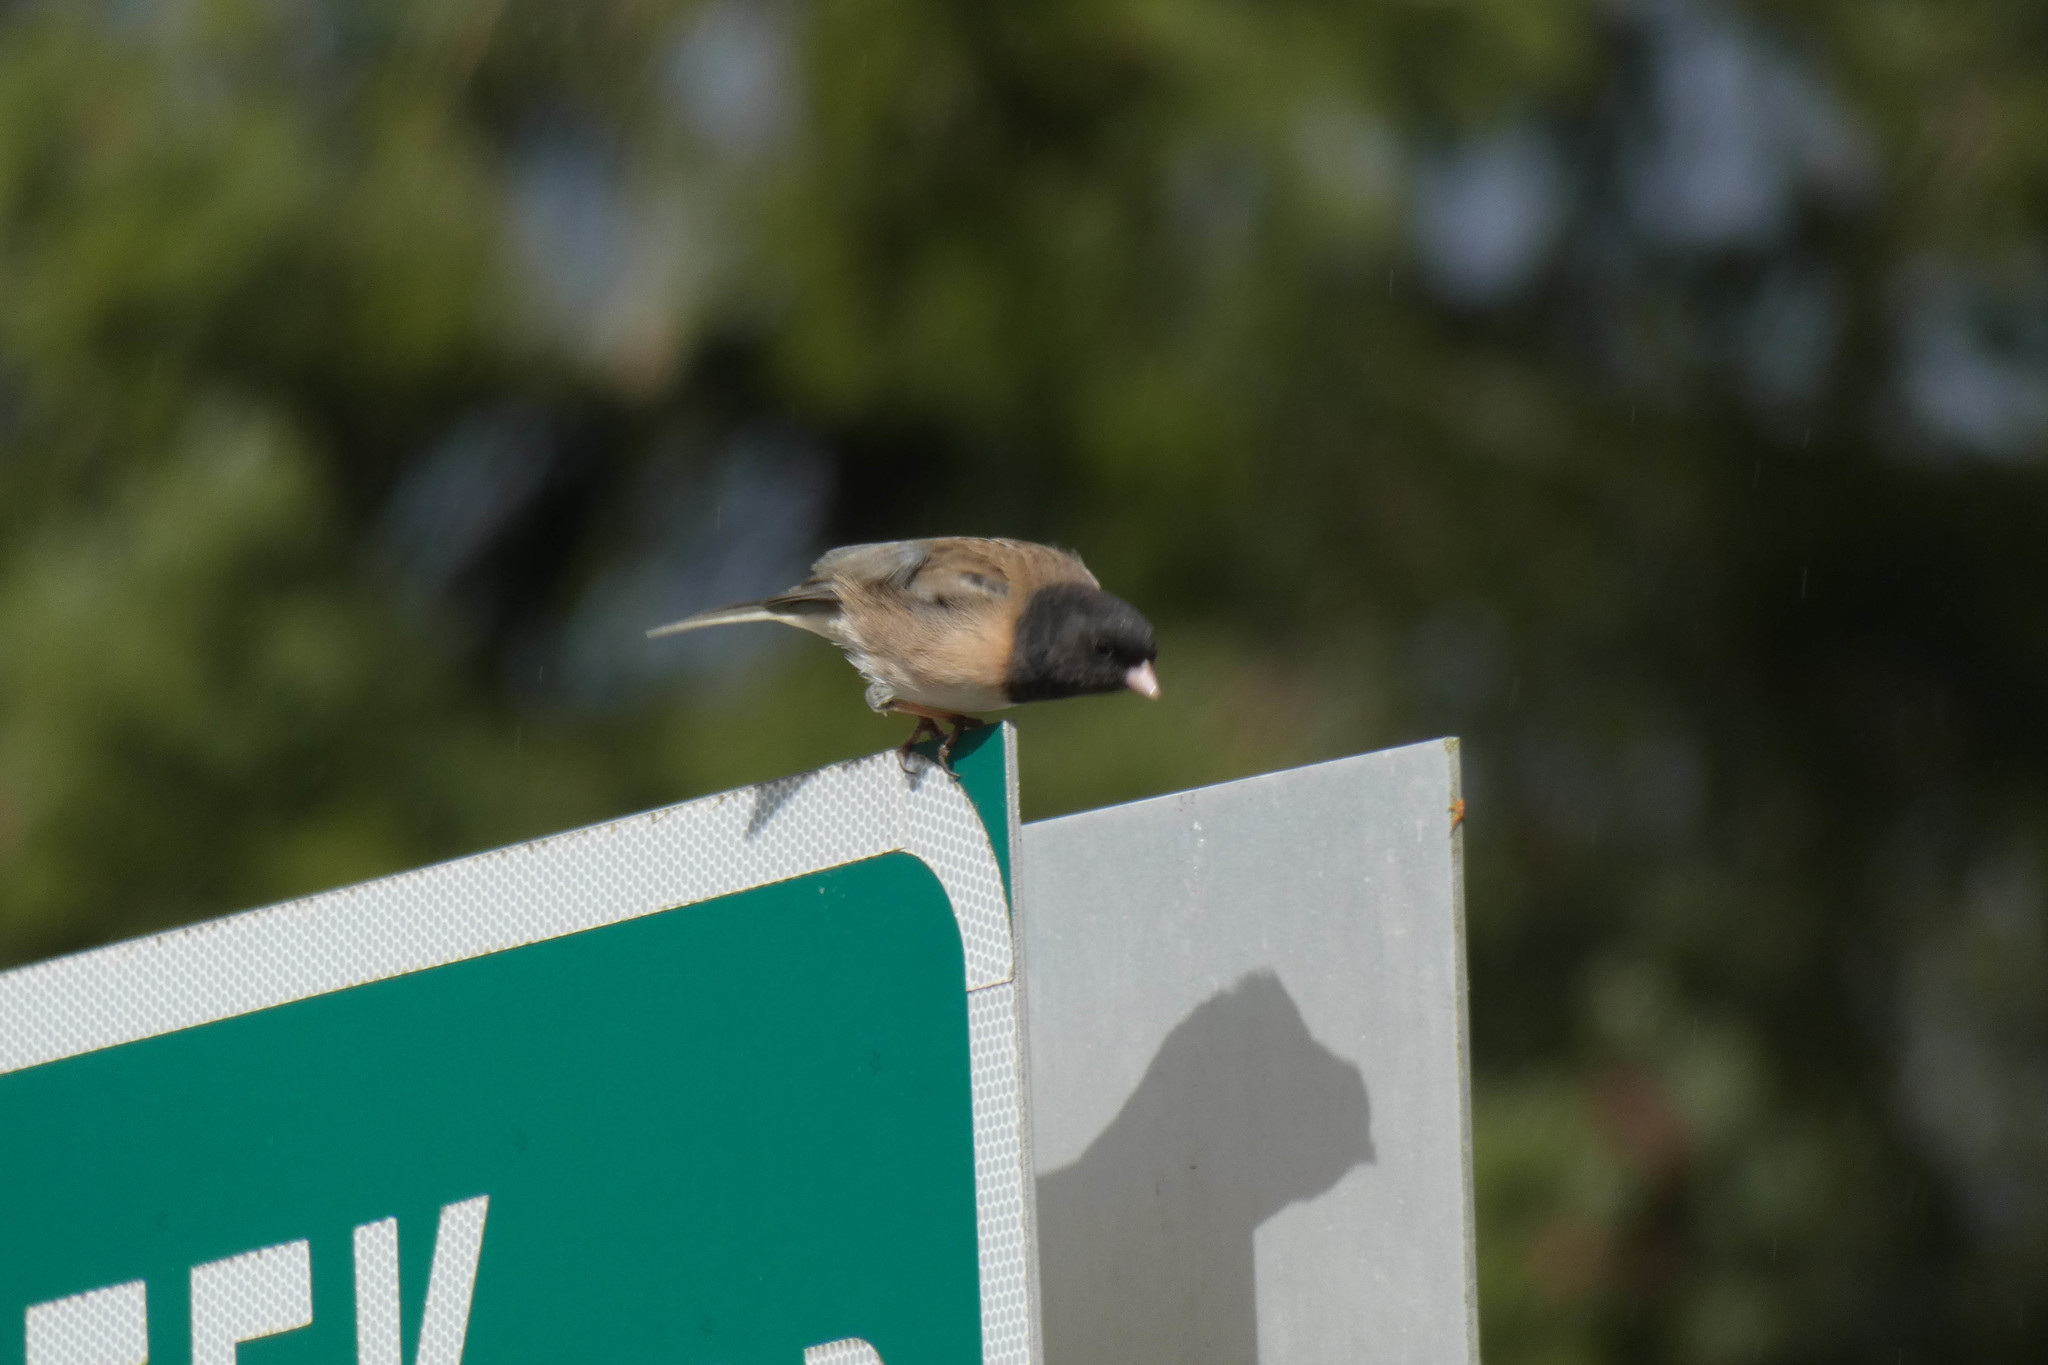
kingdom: Animalia
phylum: Chordata
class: Aves
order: Passeriformes
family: Passerellidae
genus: Junco
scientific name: Junco hyemalis
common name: Dark-eyed junco
